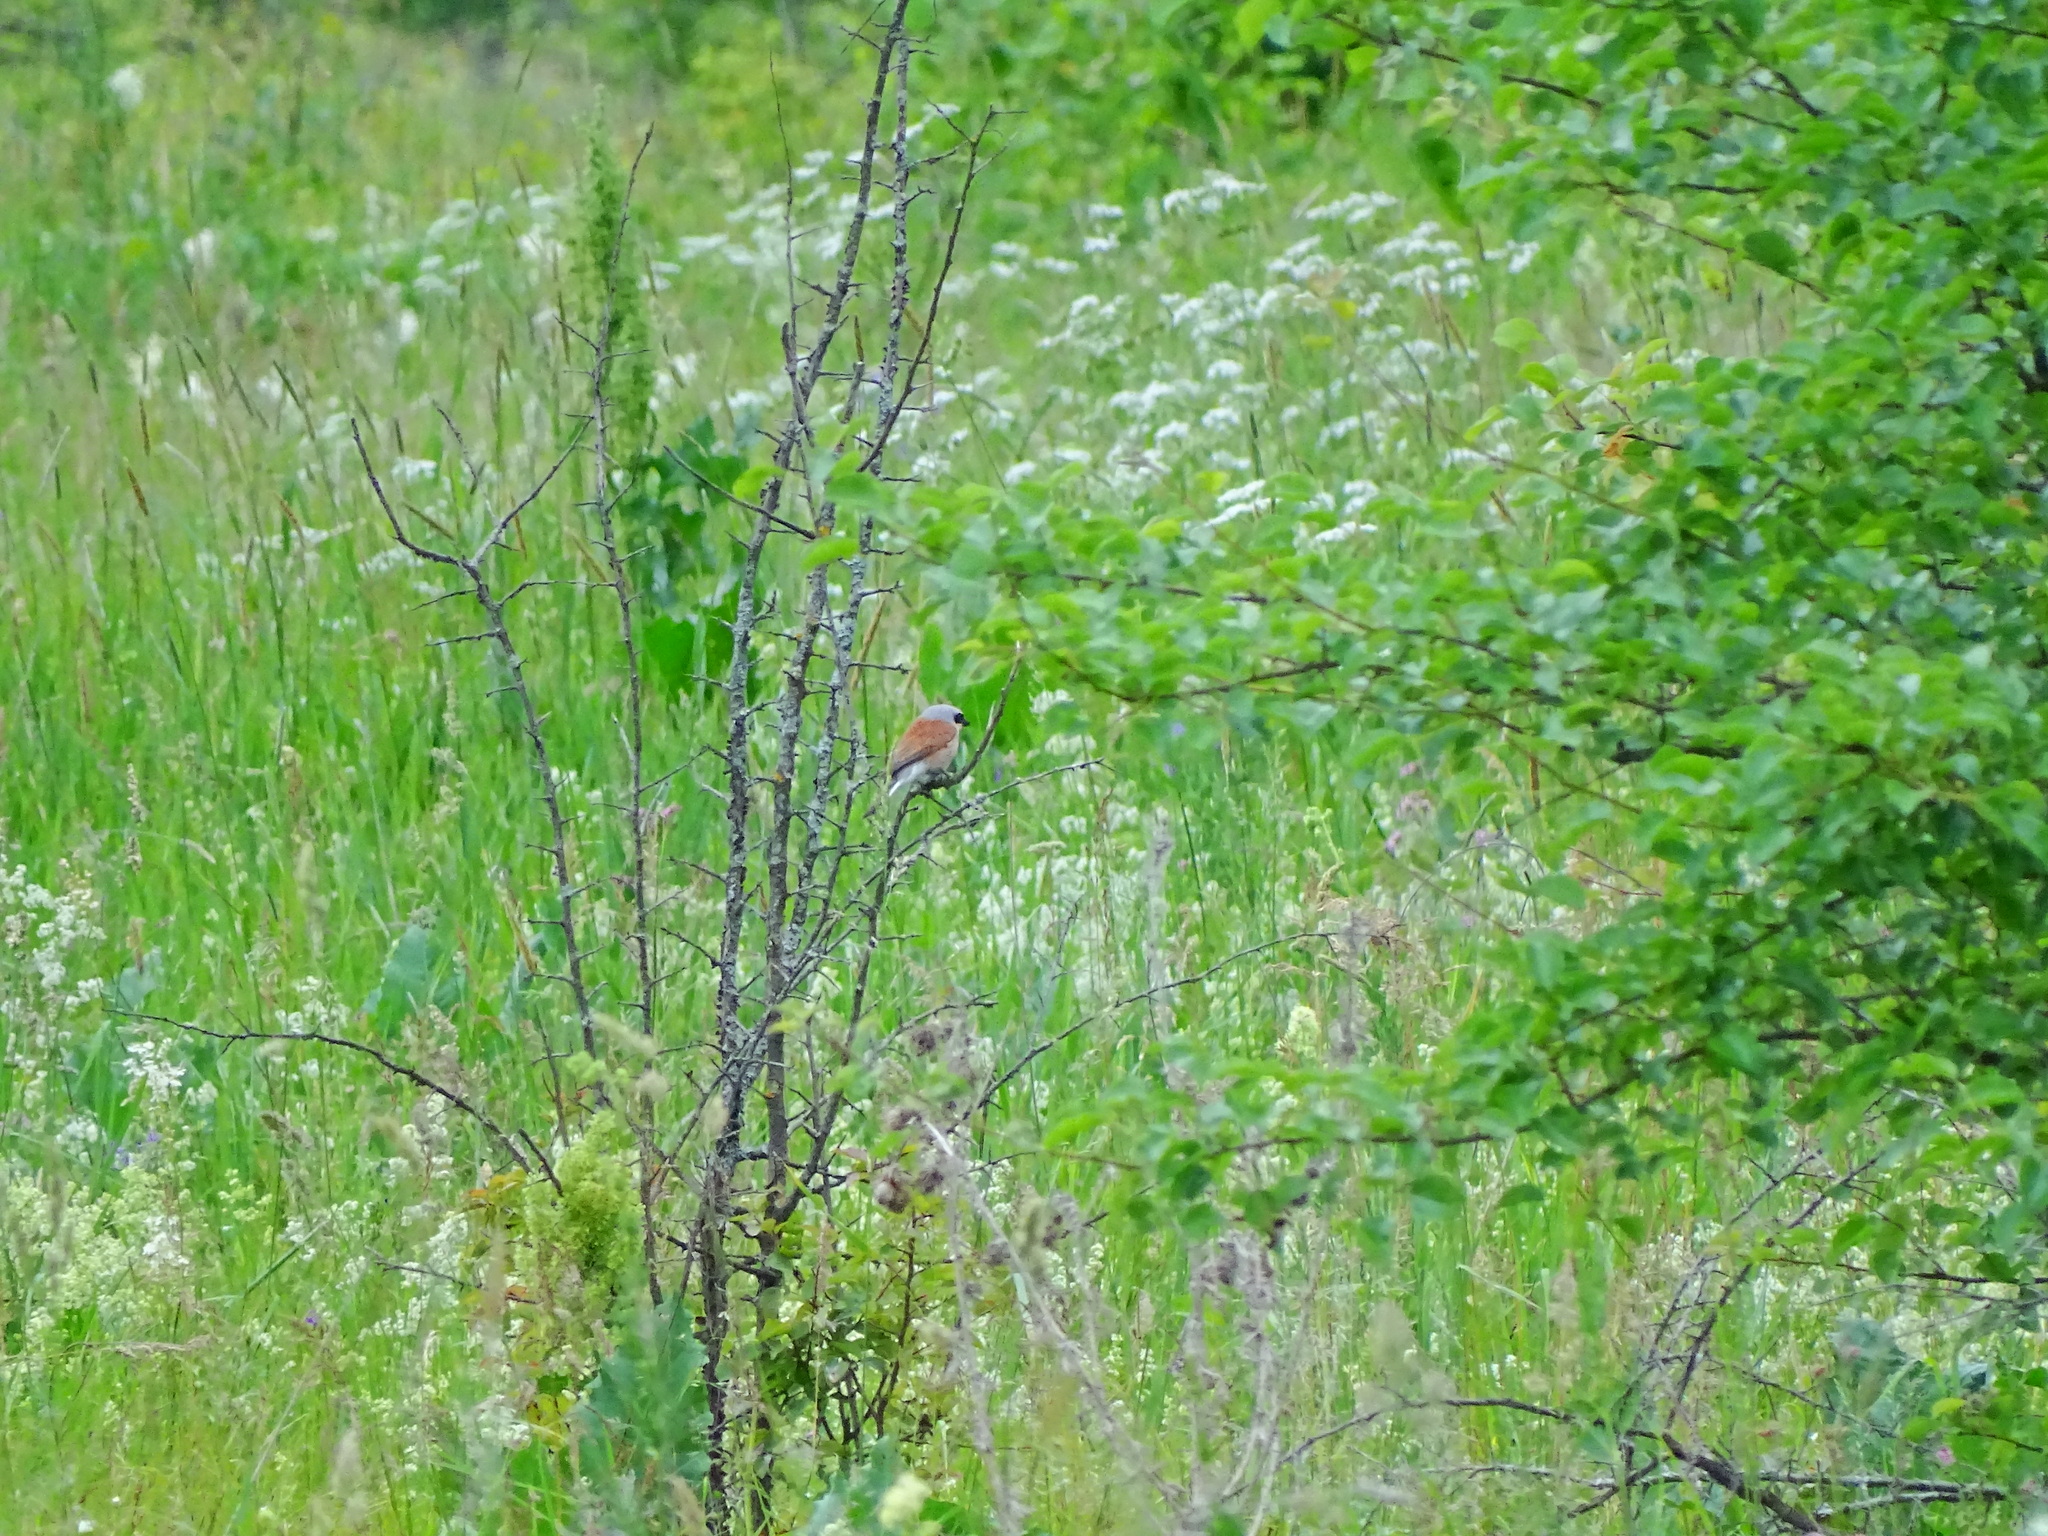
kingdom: Animalia
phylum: Chordata
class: Aves
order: Passeriformes
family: Laniidae
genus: Lanius
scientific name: Lanius collurio
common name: Red-backed shrike
